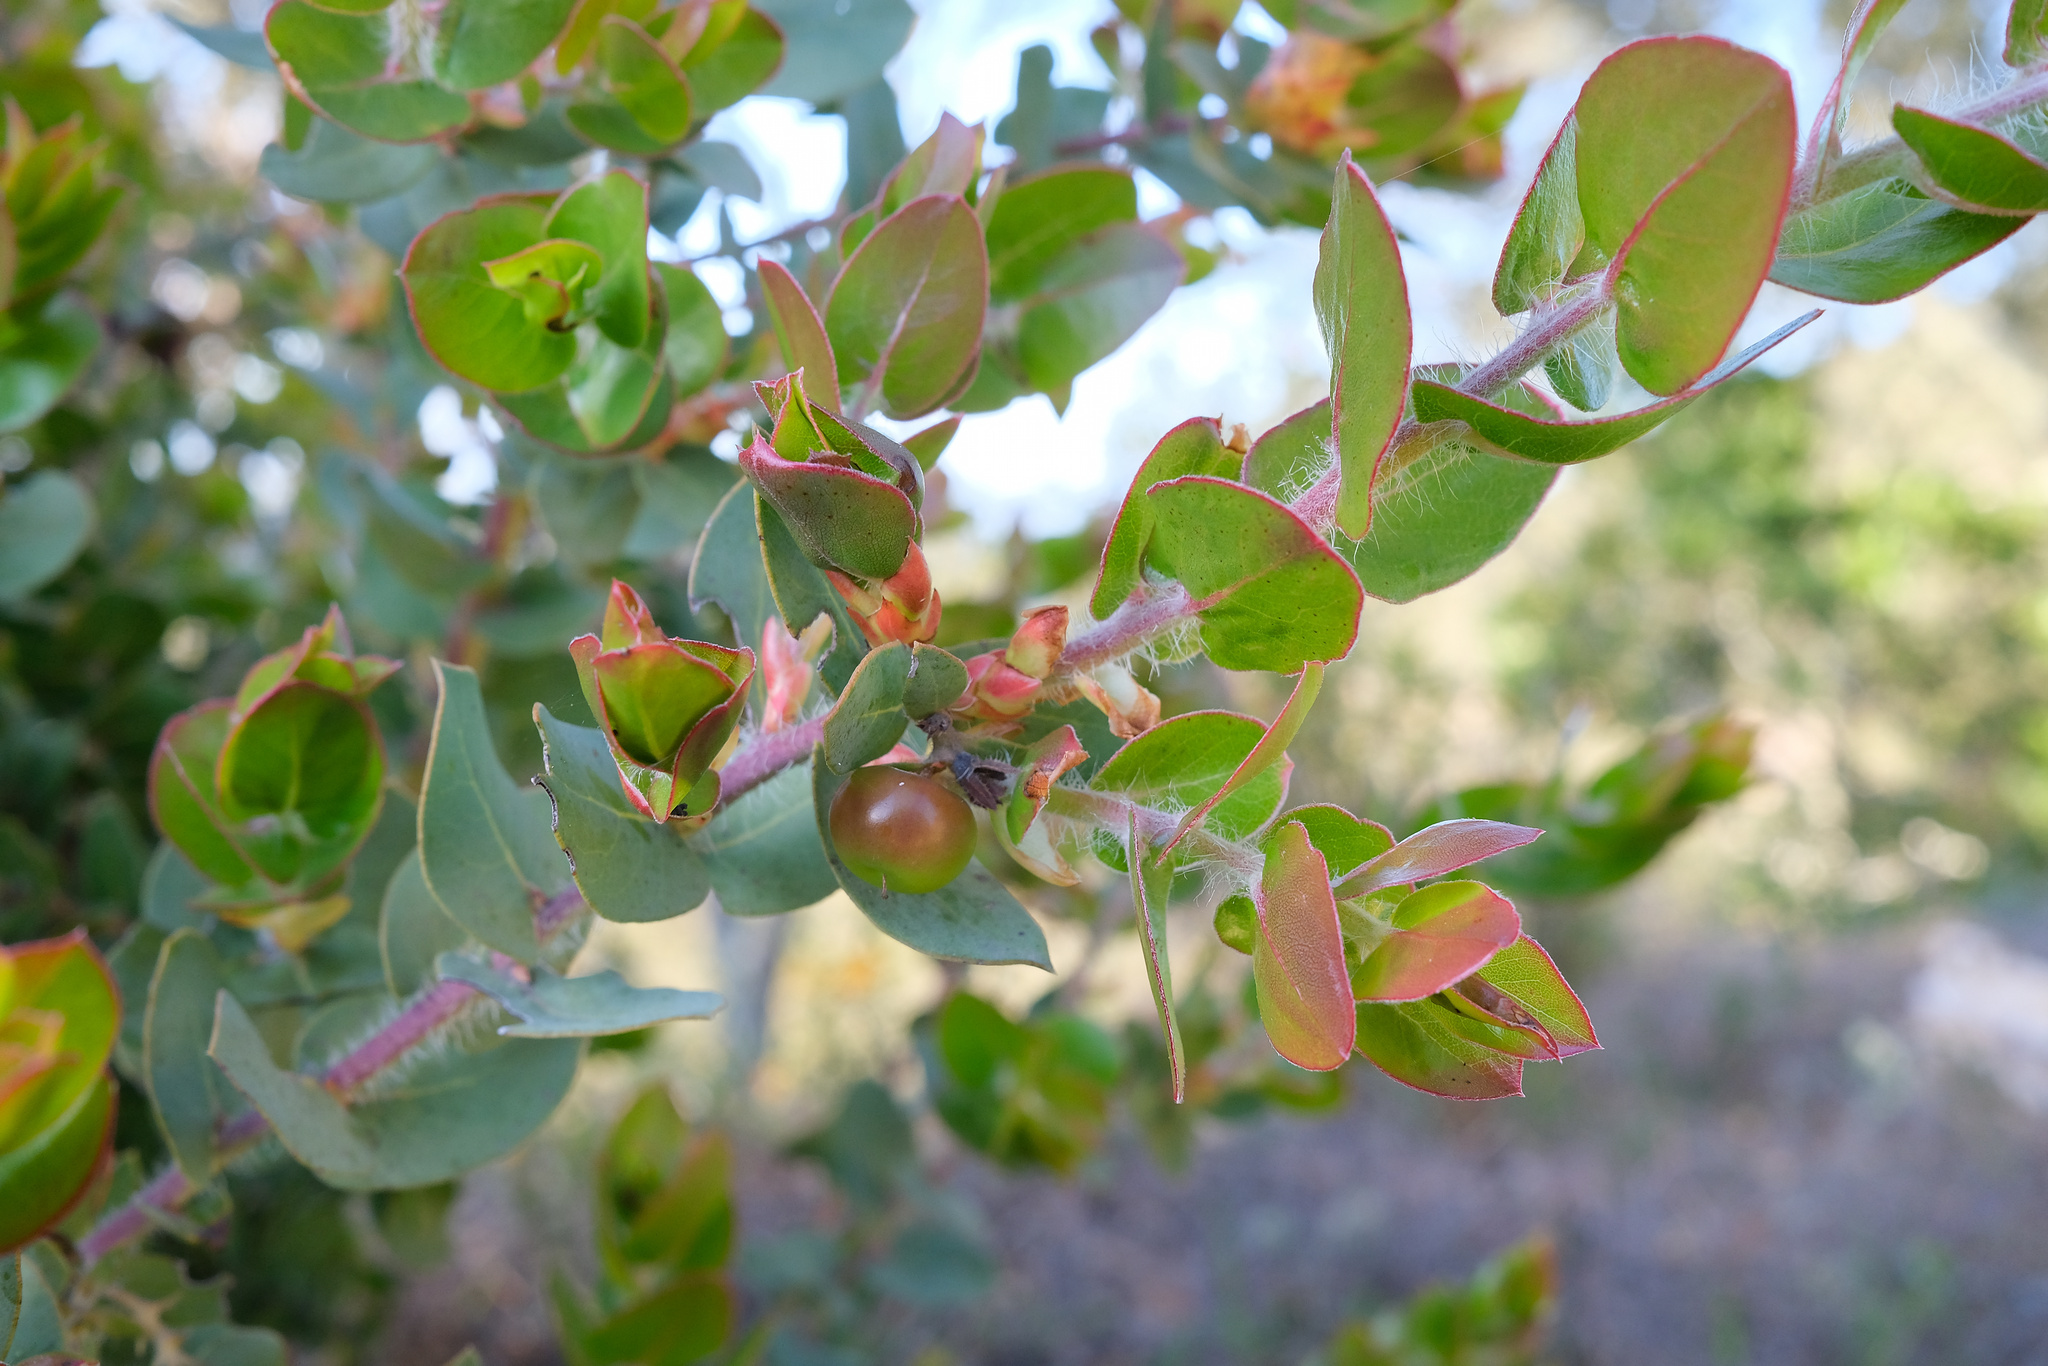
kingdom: Plantae
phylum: Tracheophyta
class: Magnoliopsida
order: Ericales
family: Ericaceae
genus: Arctostaphylos
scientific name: Arctostaphylos pechoensis
